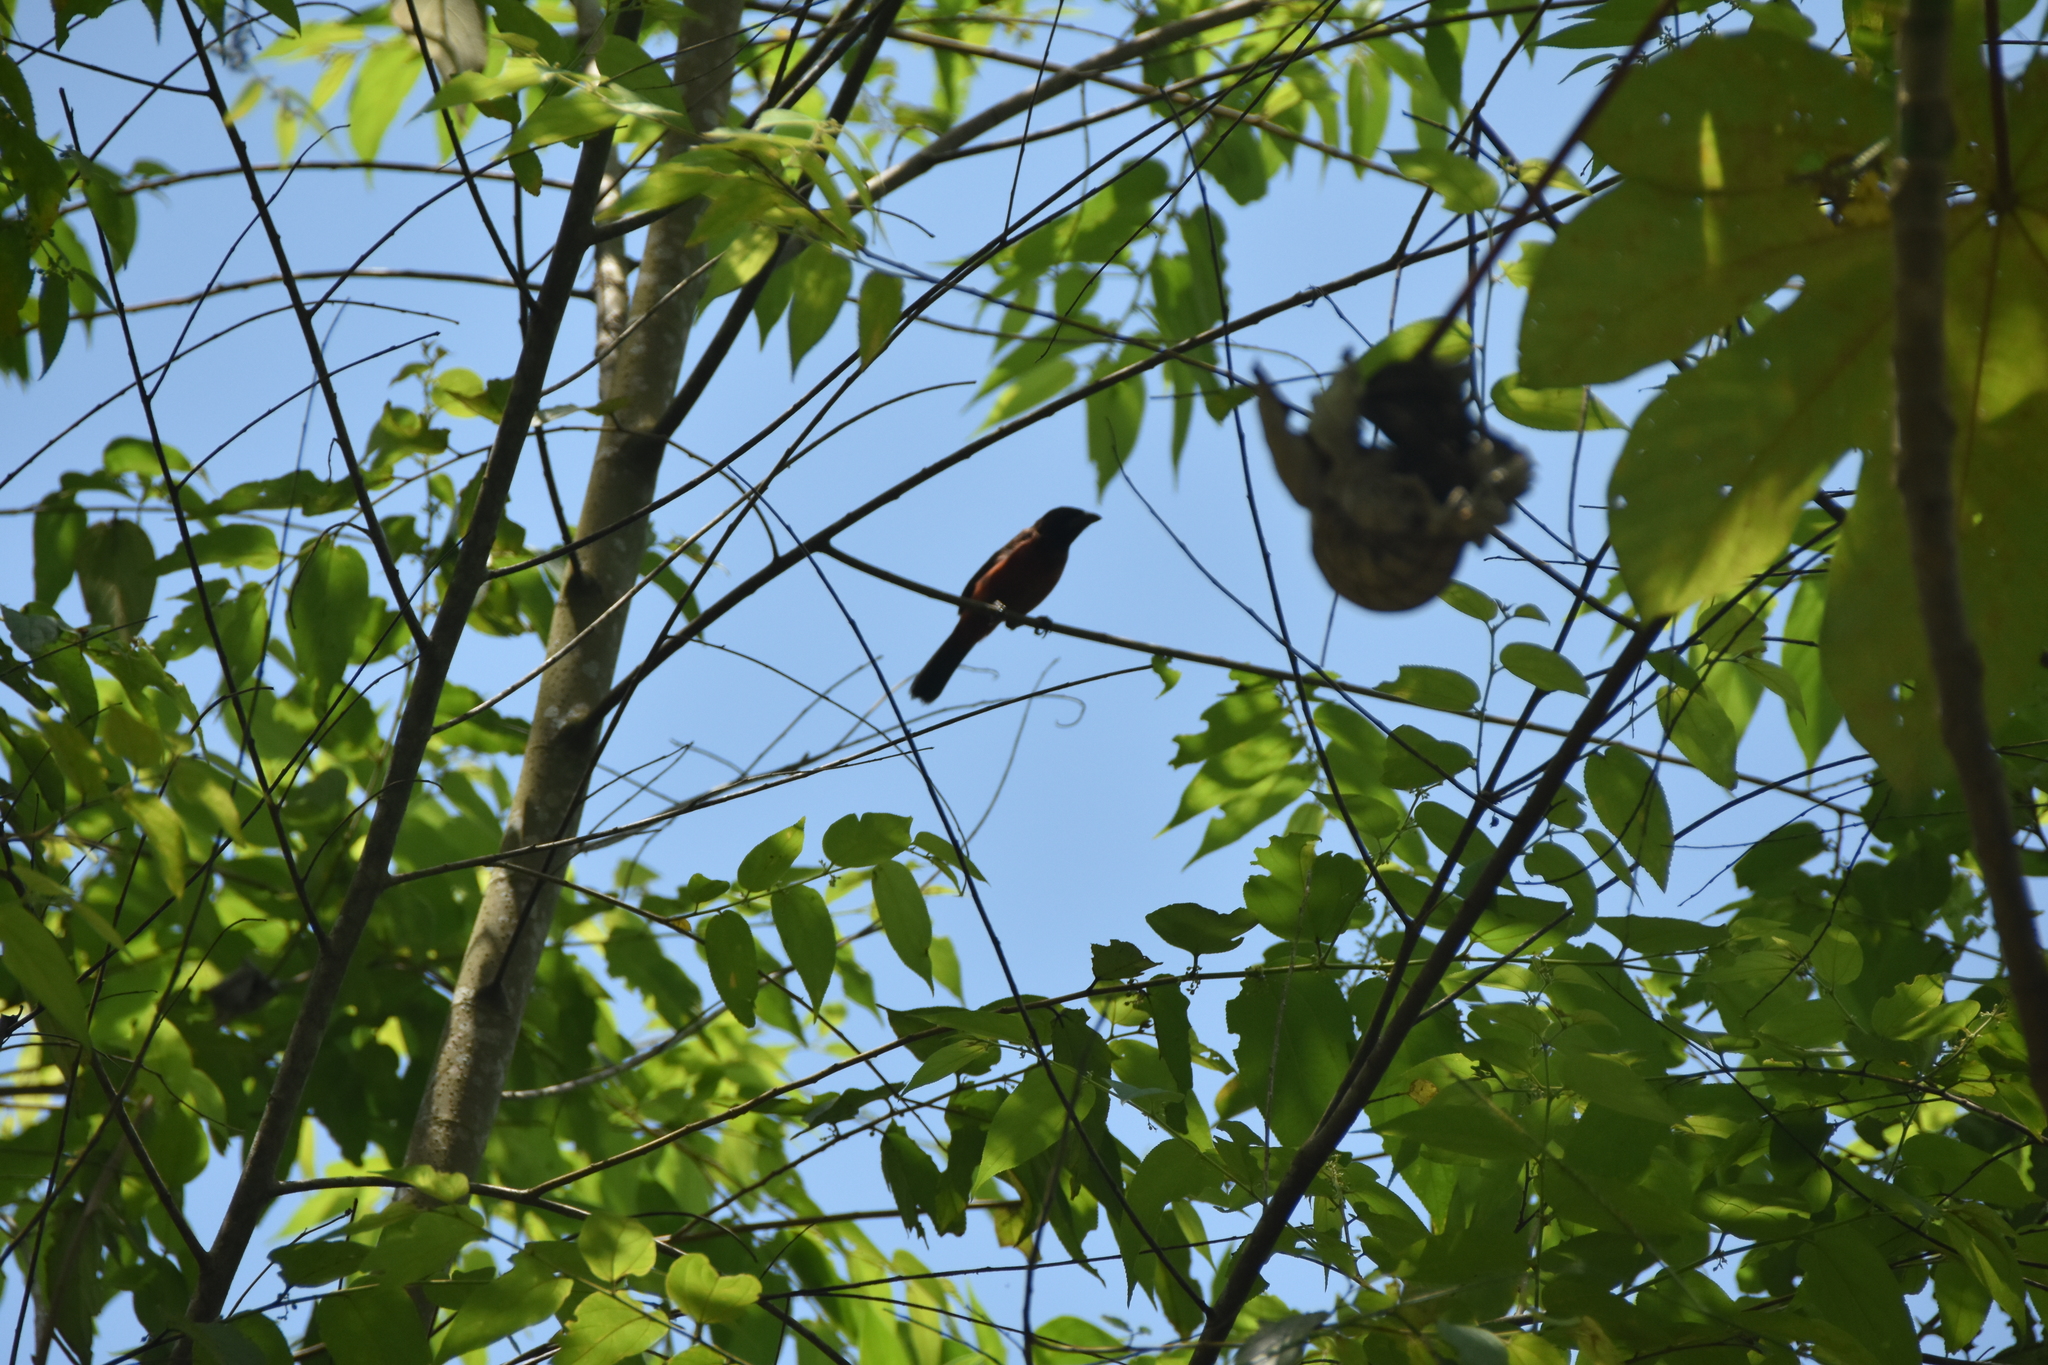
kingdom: Animalia
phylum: Chordata
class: Aves
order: Passeriformes
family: Thraupidae
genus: Ramphocelus
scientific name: Ramphocelus dimidiatus
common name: Crimson-backed tanager
